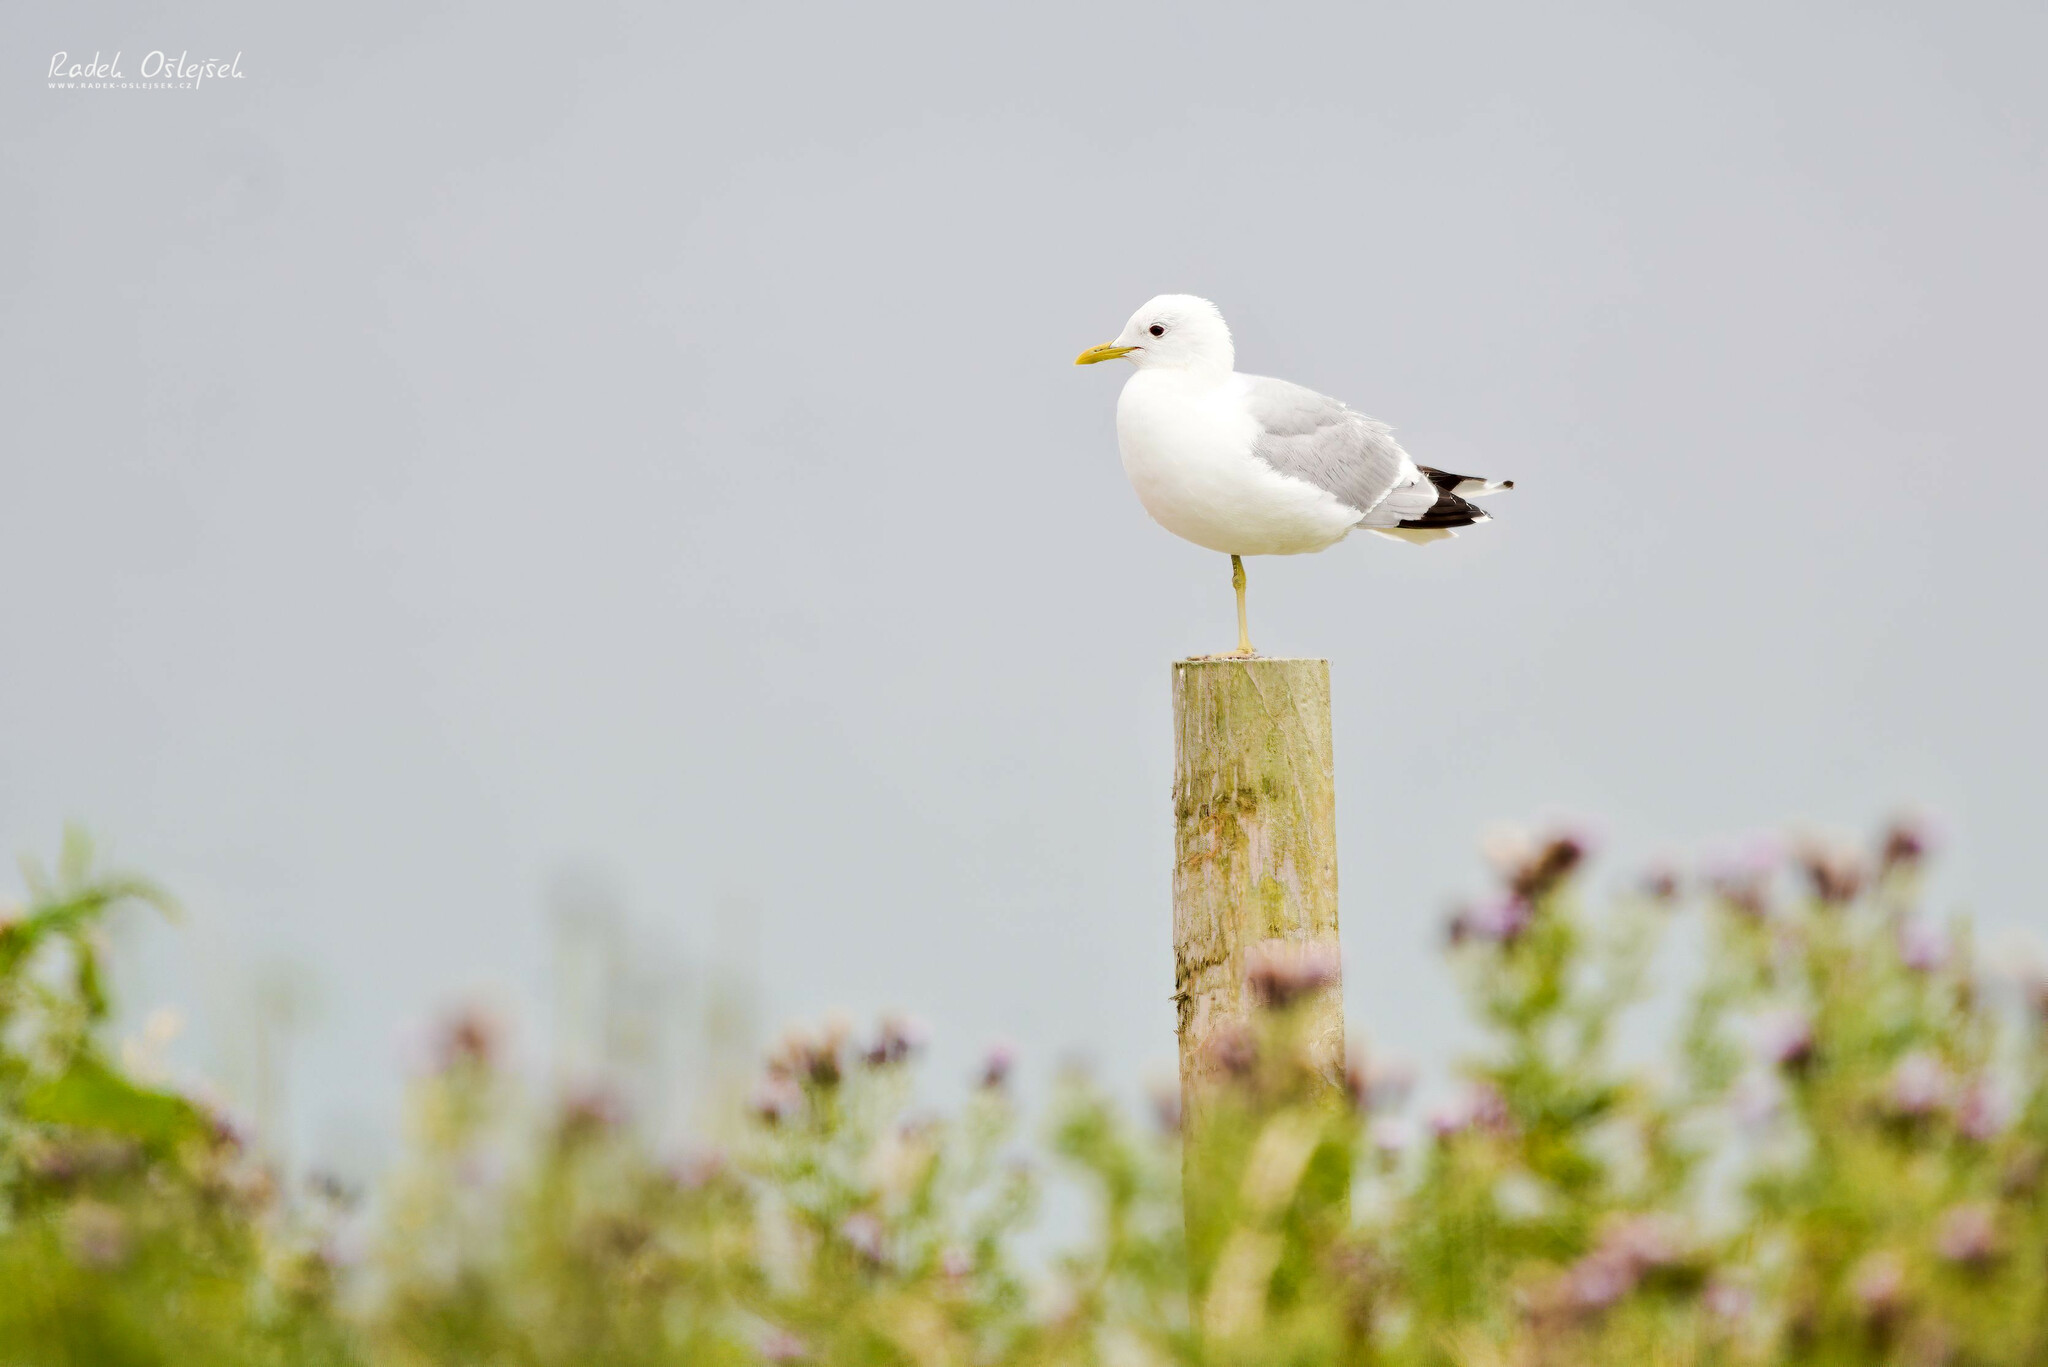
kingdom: Animalia
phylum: Chordata
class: Aves
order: Charadriiformes
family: Laridae
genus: Larus
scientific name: Larus canus
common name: Mew gull
